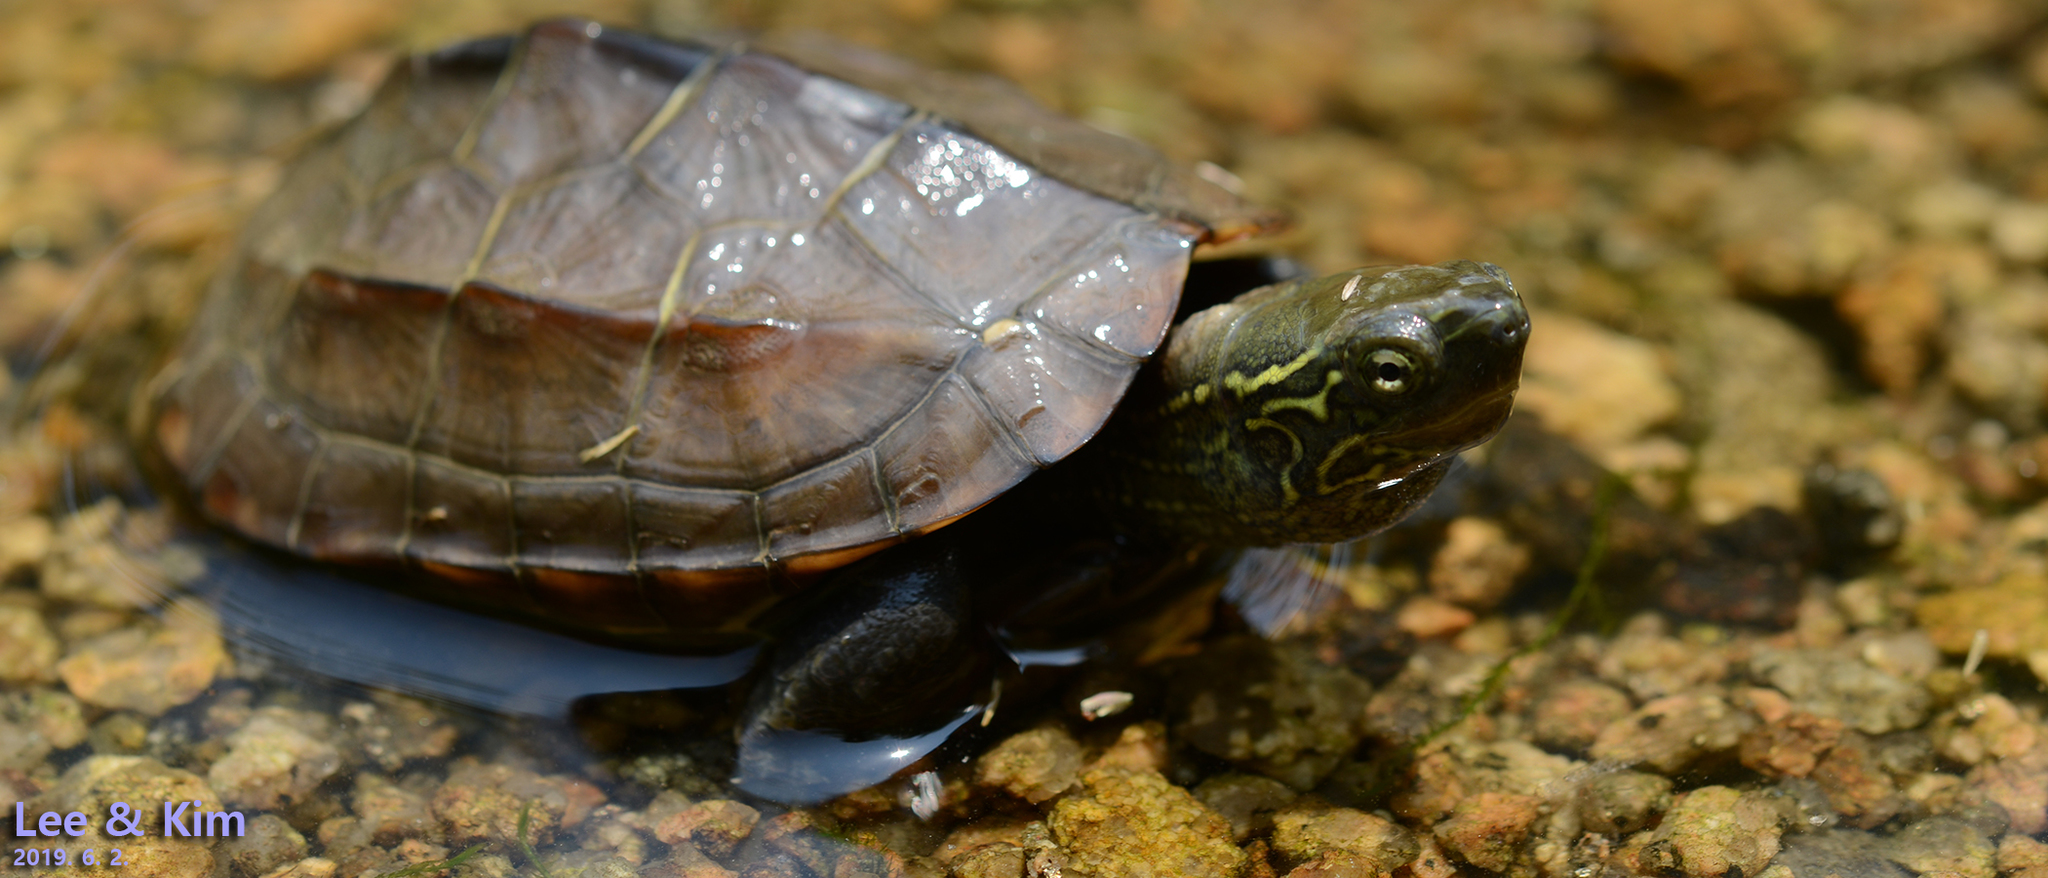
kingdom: Animalia
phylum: Chordata
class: Testudines
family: Geoemydidae
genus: Mauremys
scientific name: Mauremys reevesii
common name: Chinese pond turtle
